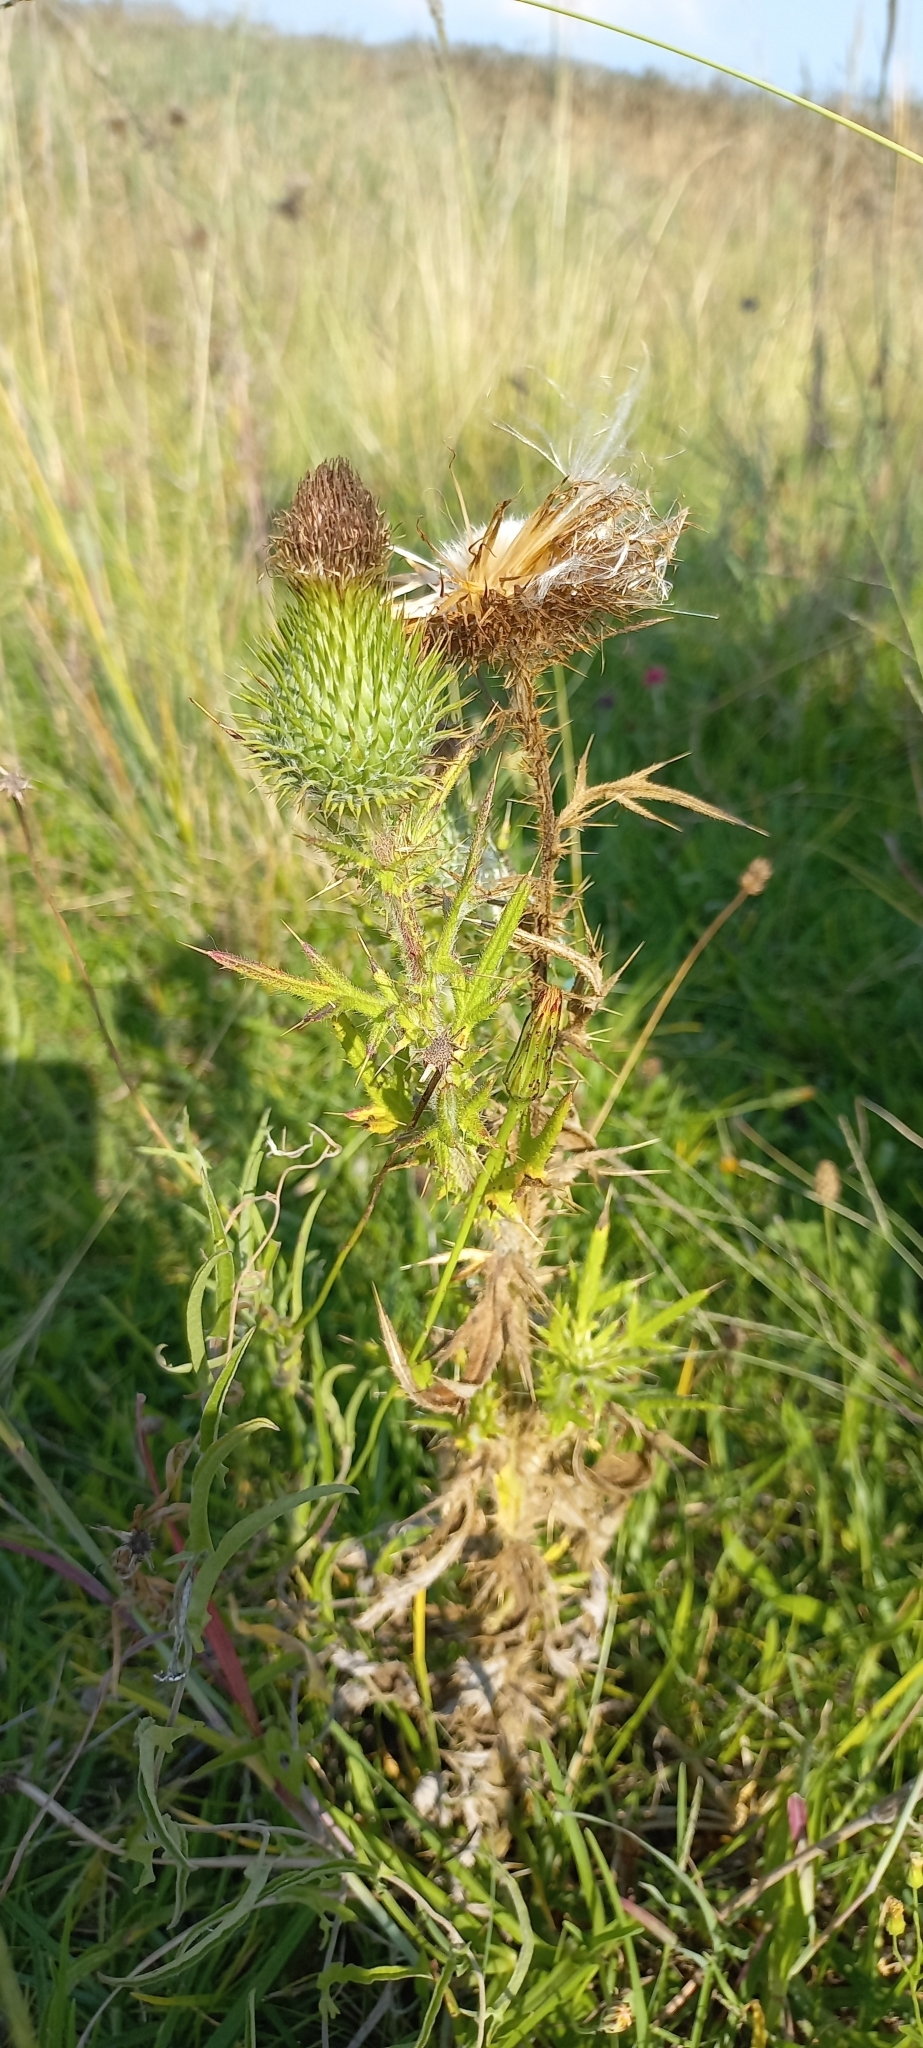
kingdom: Plantae
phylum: Tracheophyta
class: Magnoliopsida
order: Asterales
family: Asteraceae
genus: Cirsium
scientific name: Cirsium vulgare
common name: Bull thistle
